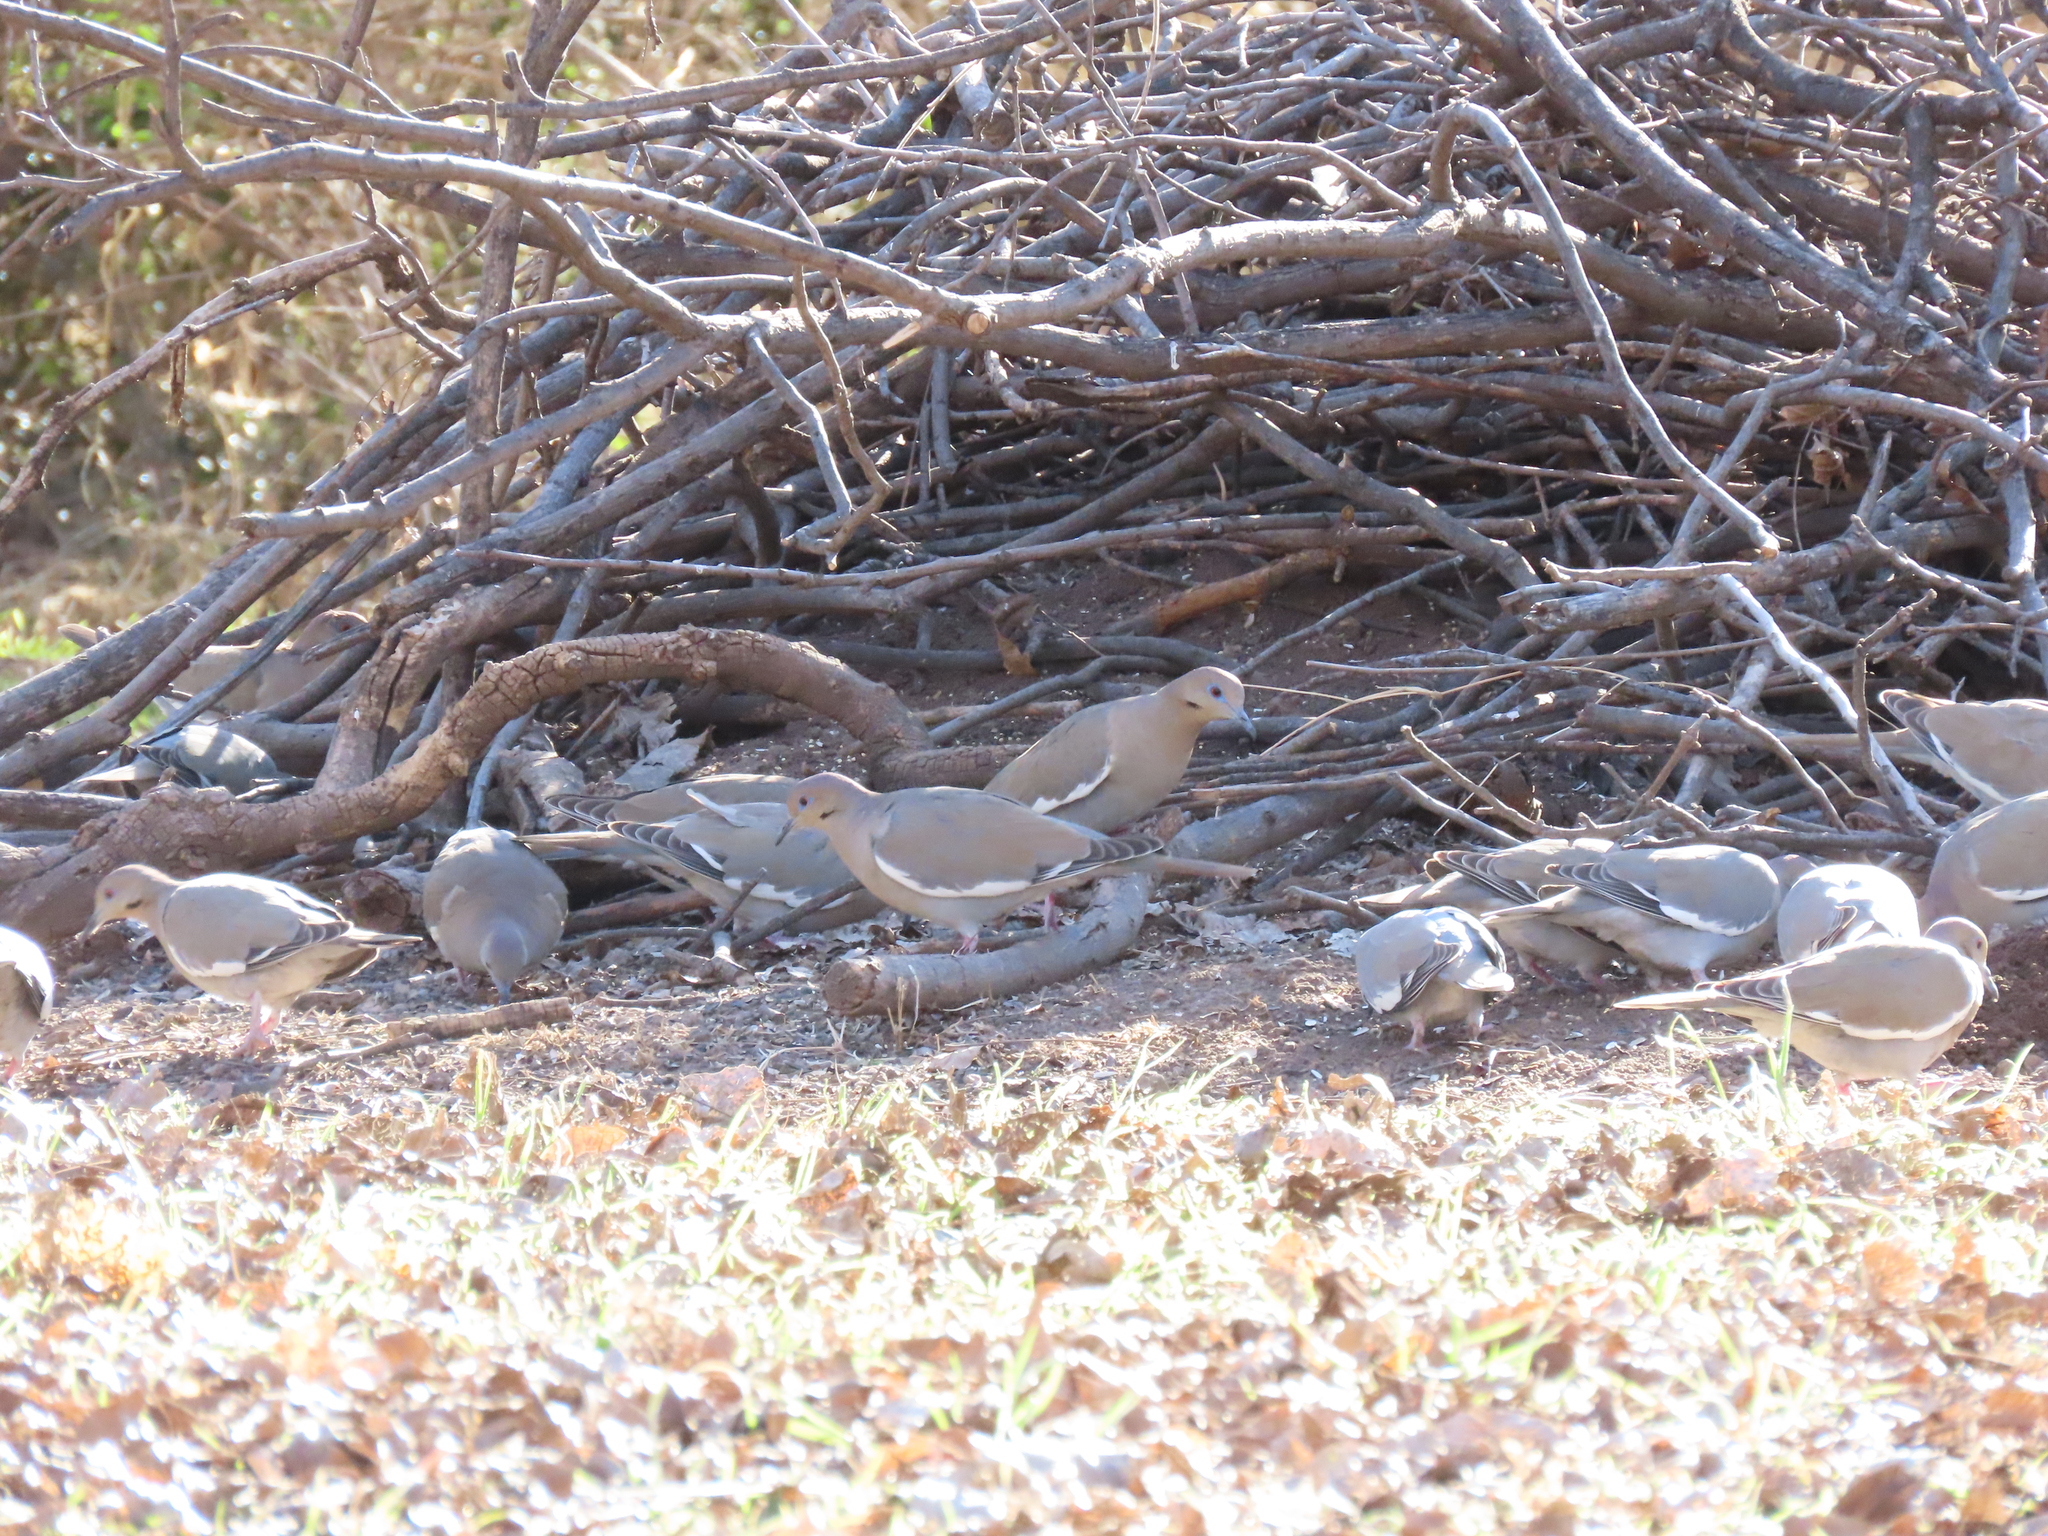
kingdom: Animalia
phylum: Chordata
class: Aves
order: Columbiformes
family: Columbidae
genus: Zenaida
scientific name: Zenaida asiatica
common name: White-winged dove
